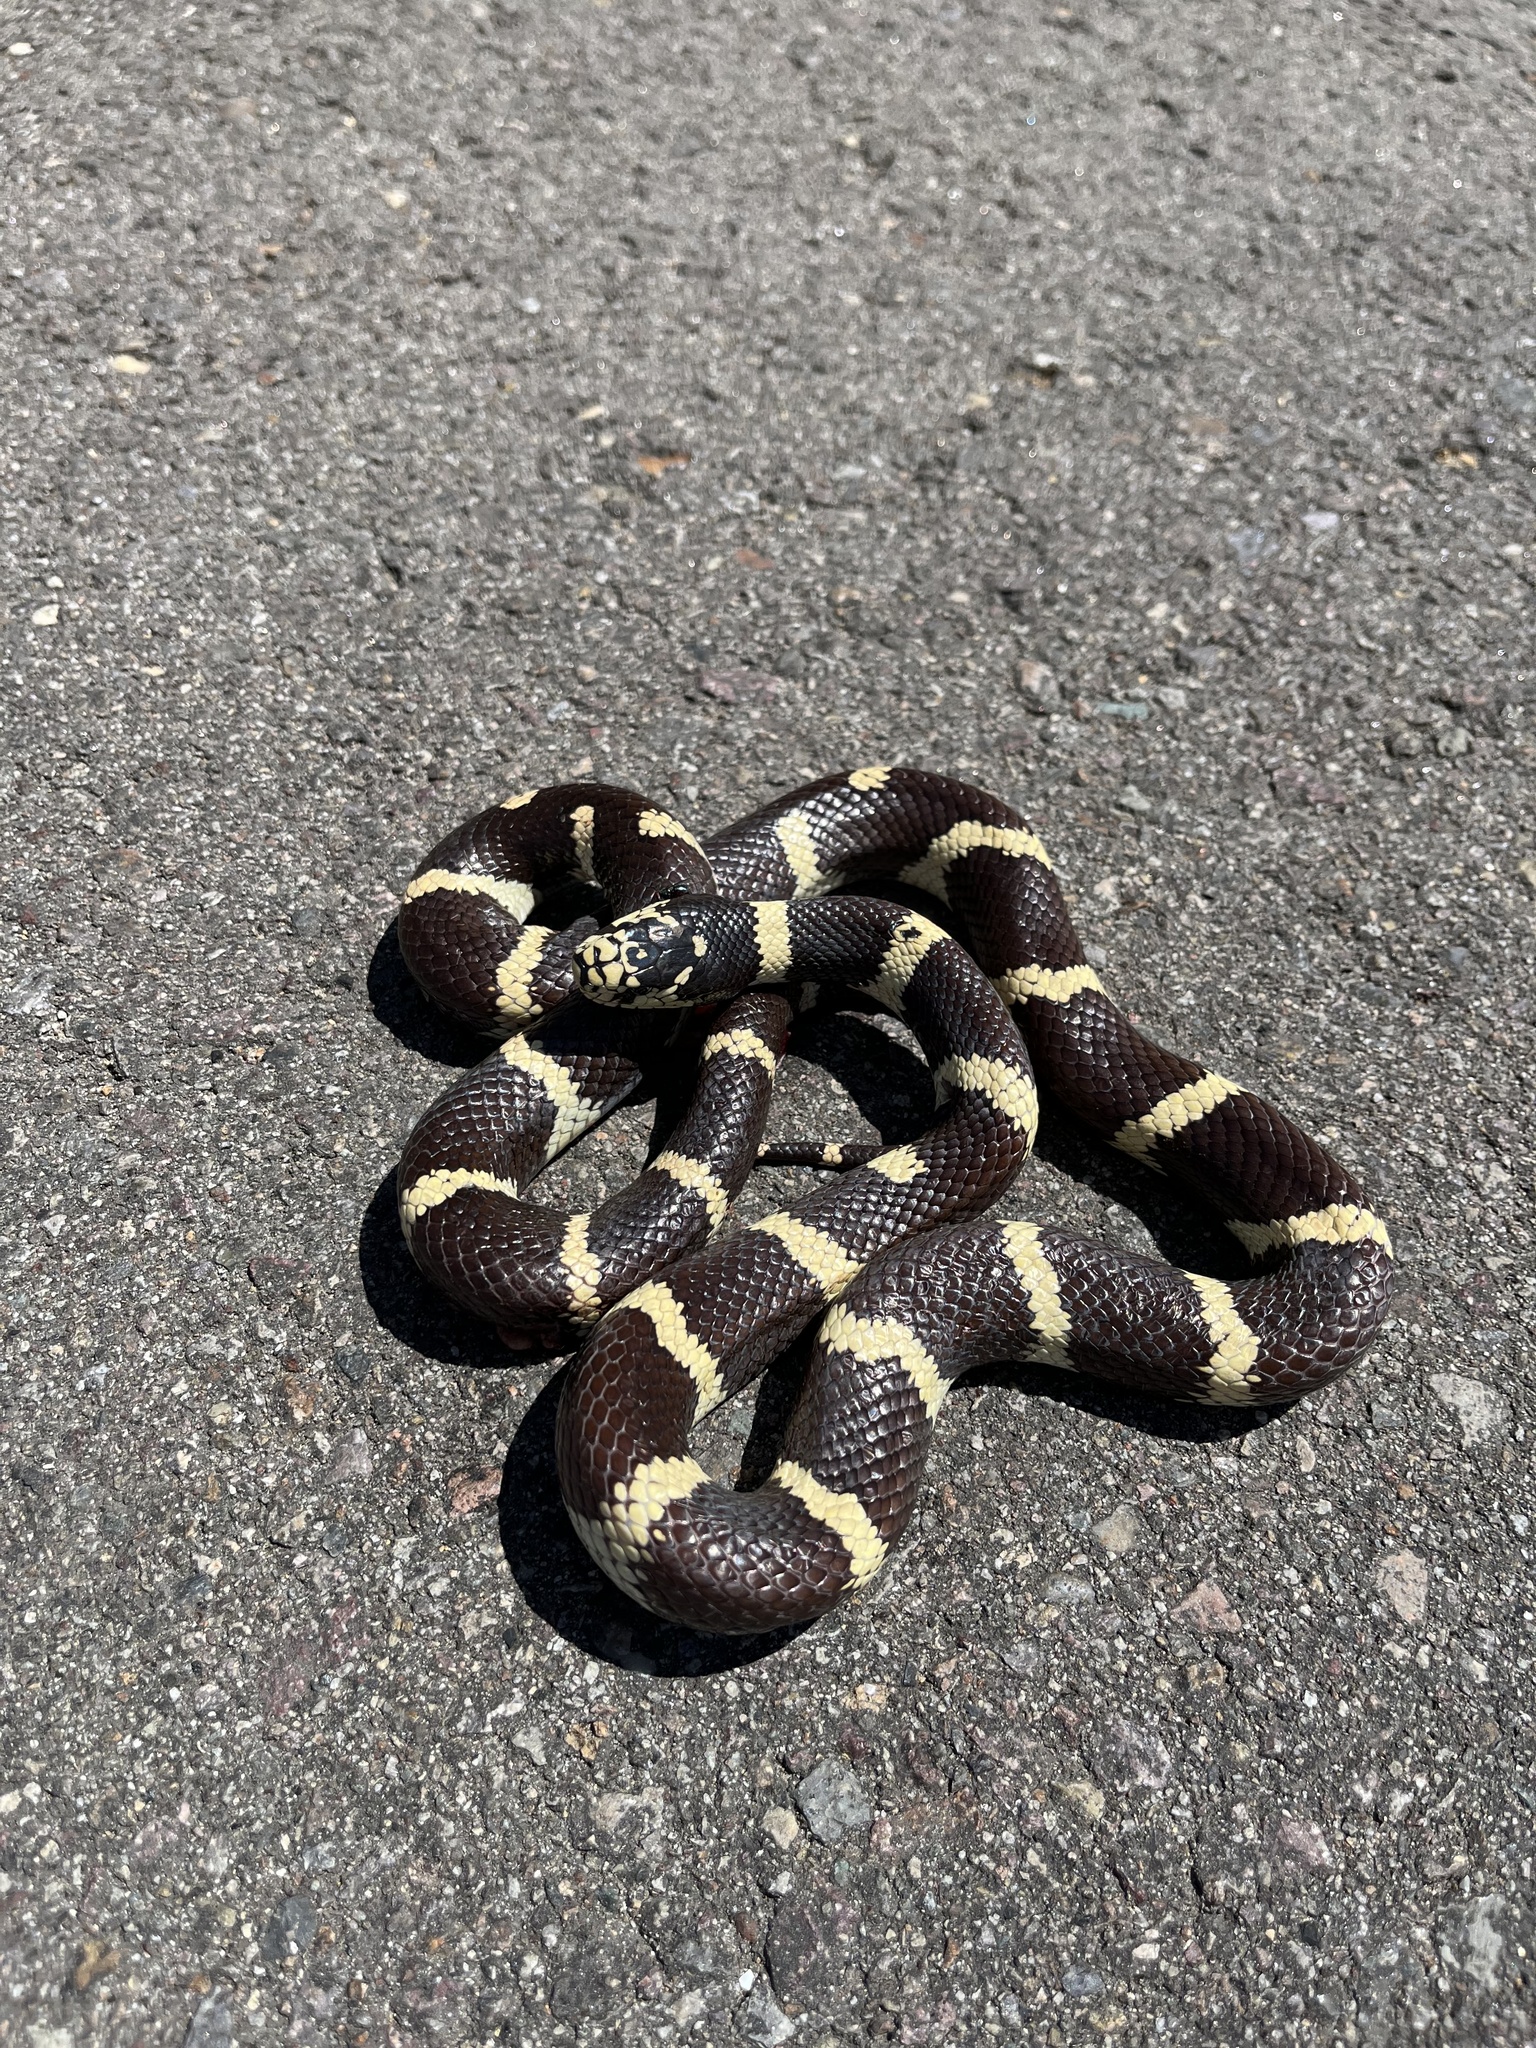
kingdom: Animalia
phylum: Chordata
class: Squamata
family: Colubridae
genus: Lampropeltis
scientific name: Lampropeltis californiae
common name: California kingsnake
